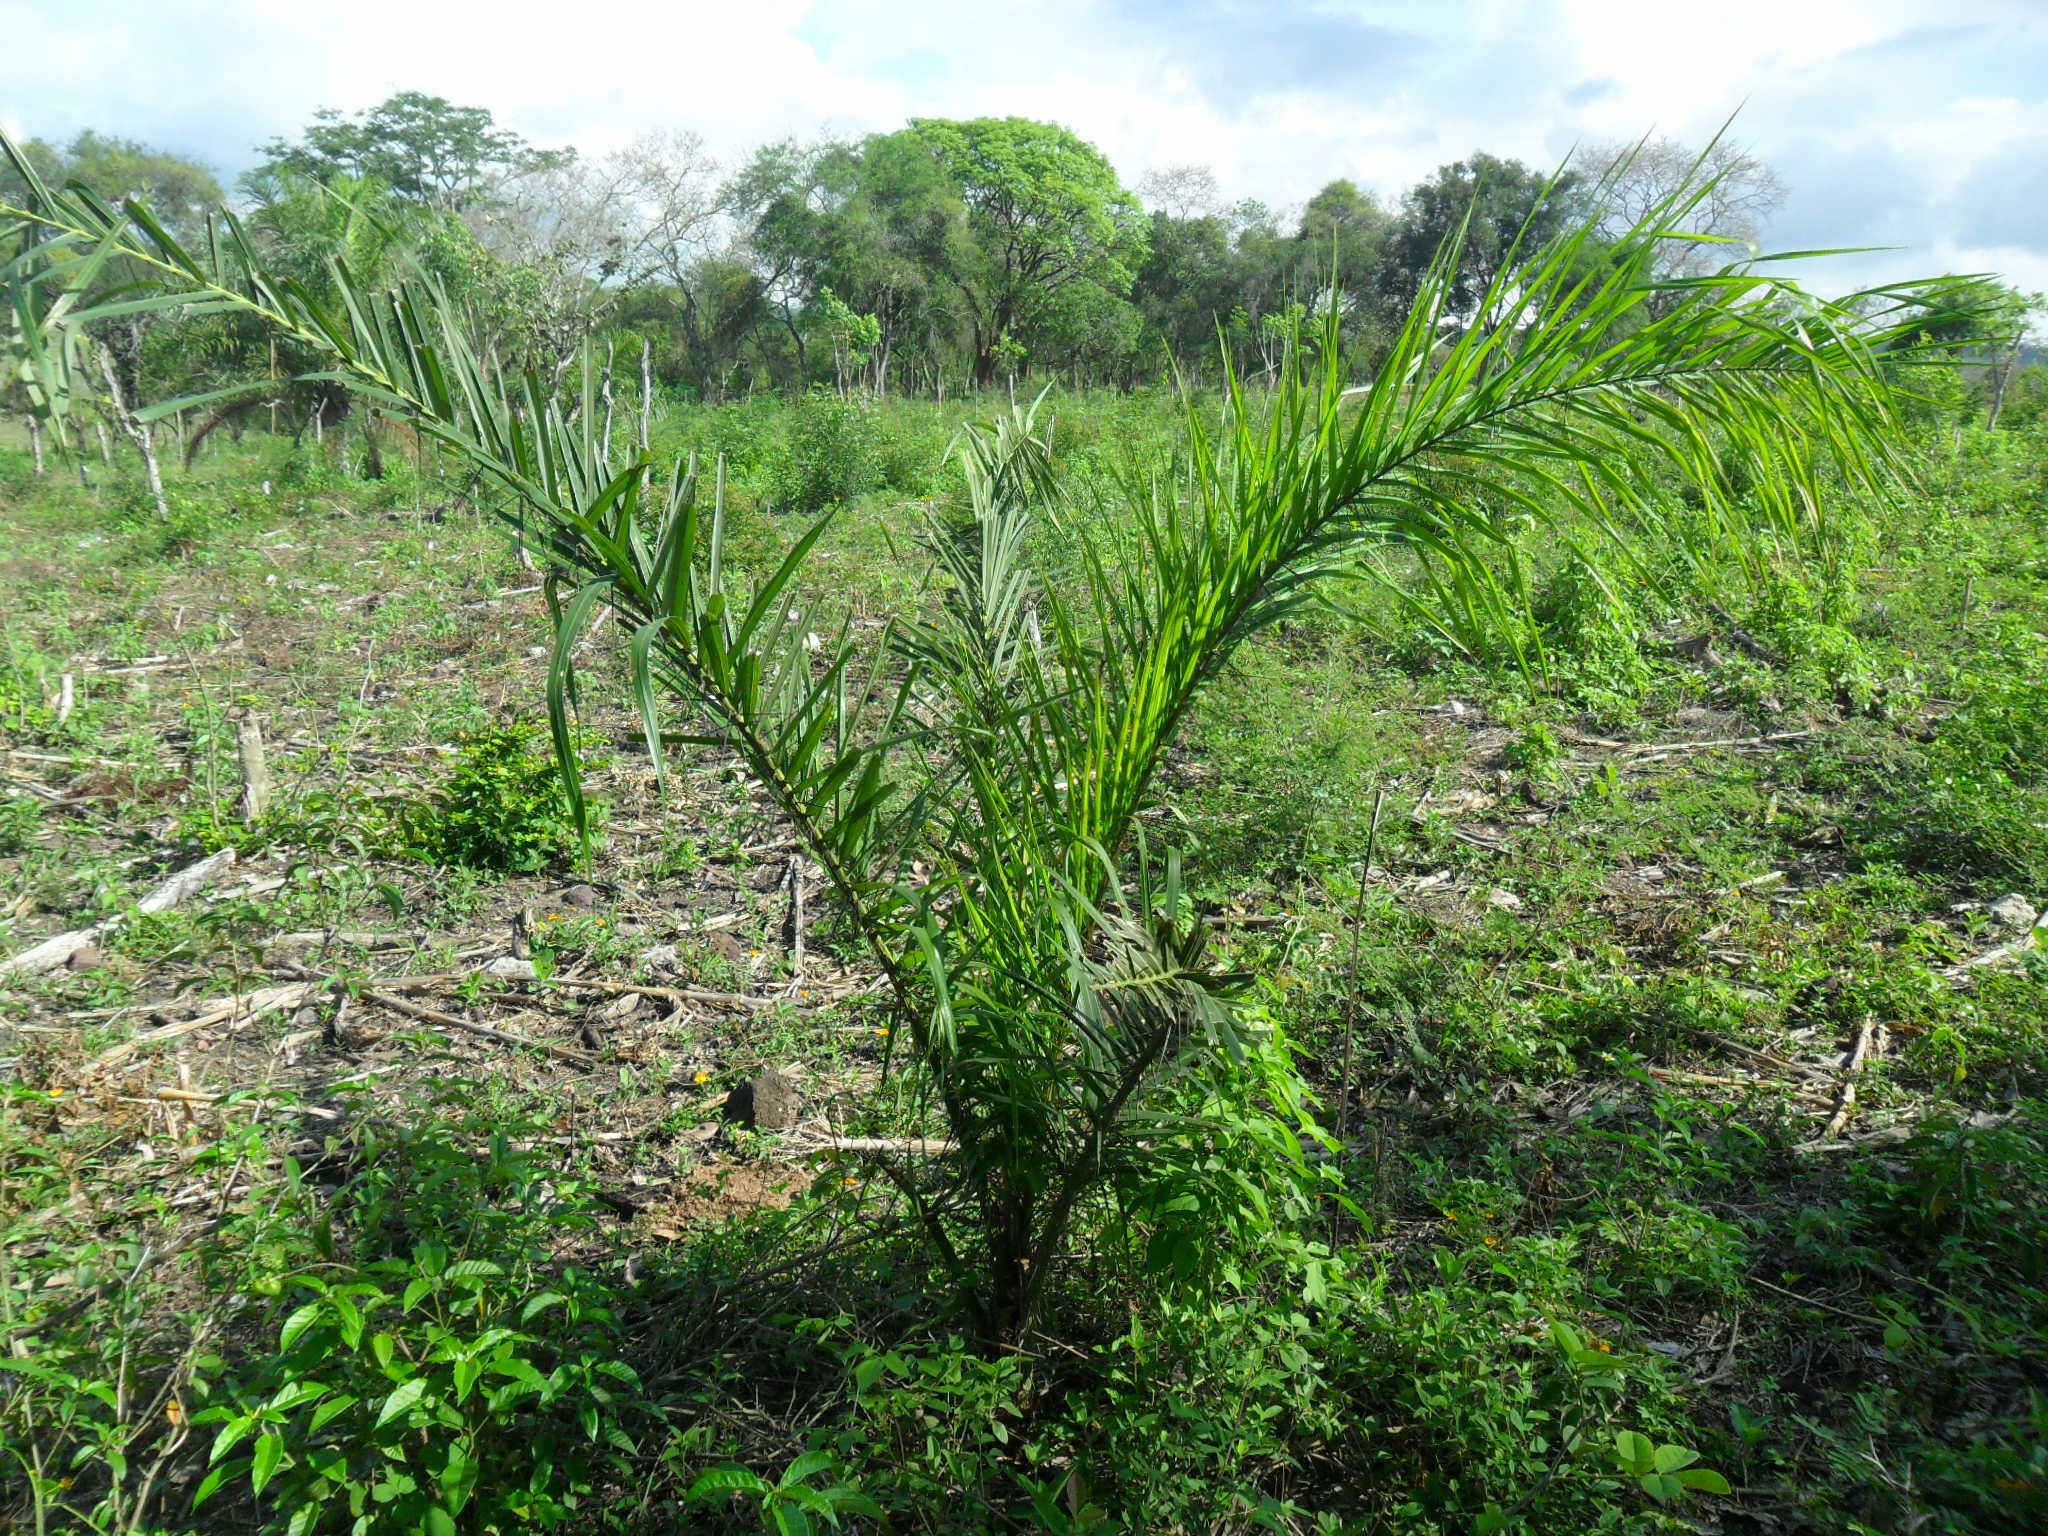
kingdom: Plantae
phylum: Tracheophyta
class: Liliopsida
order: Arecales
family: Arecaceae
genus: Acrocomia
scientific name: Acrocomia aculeata
